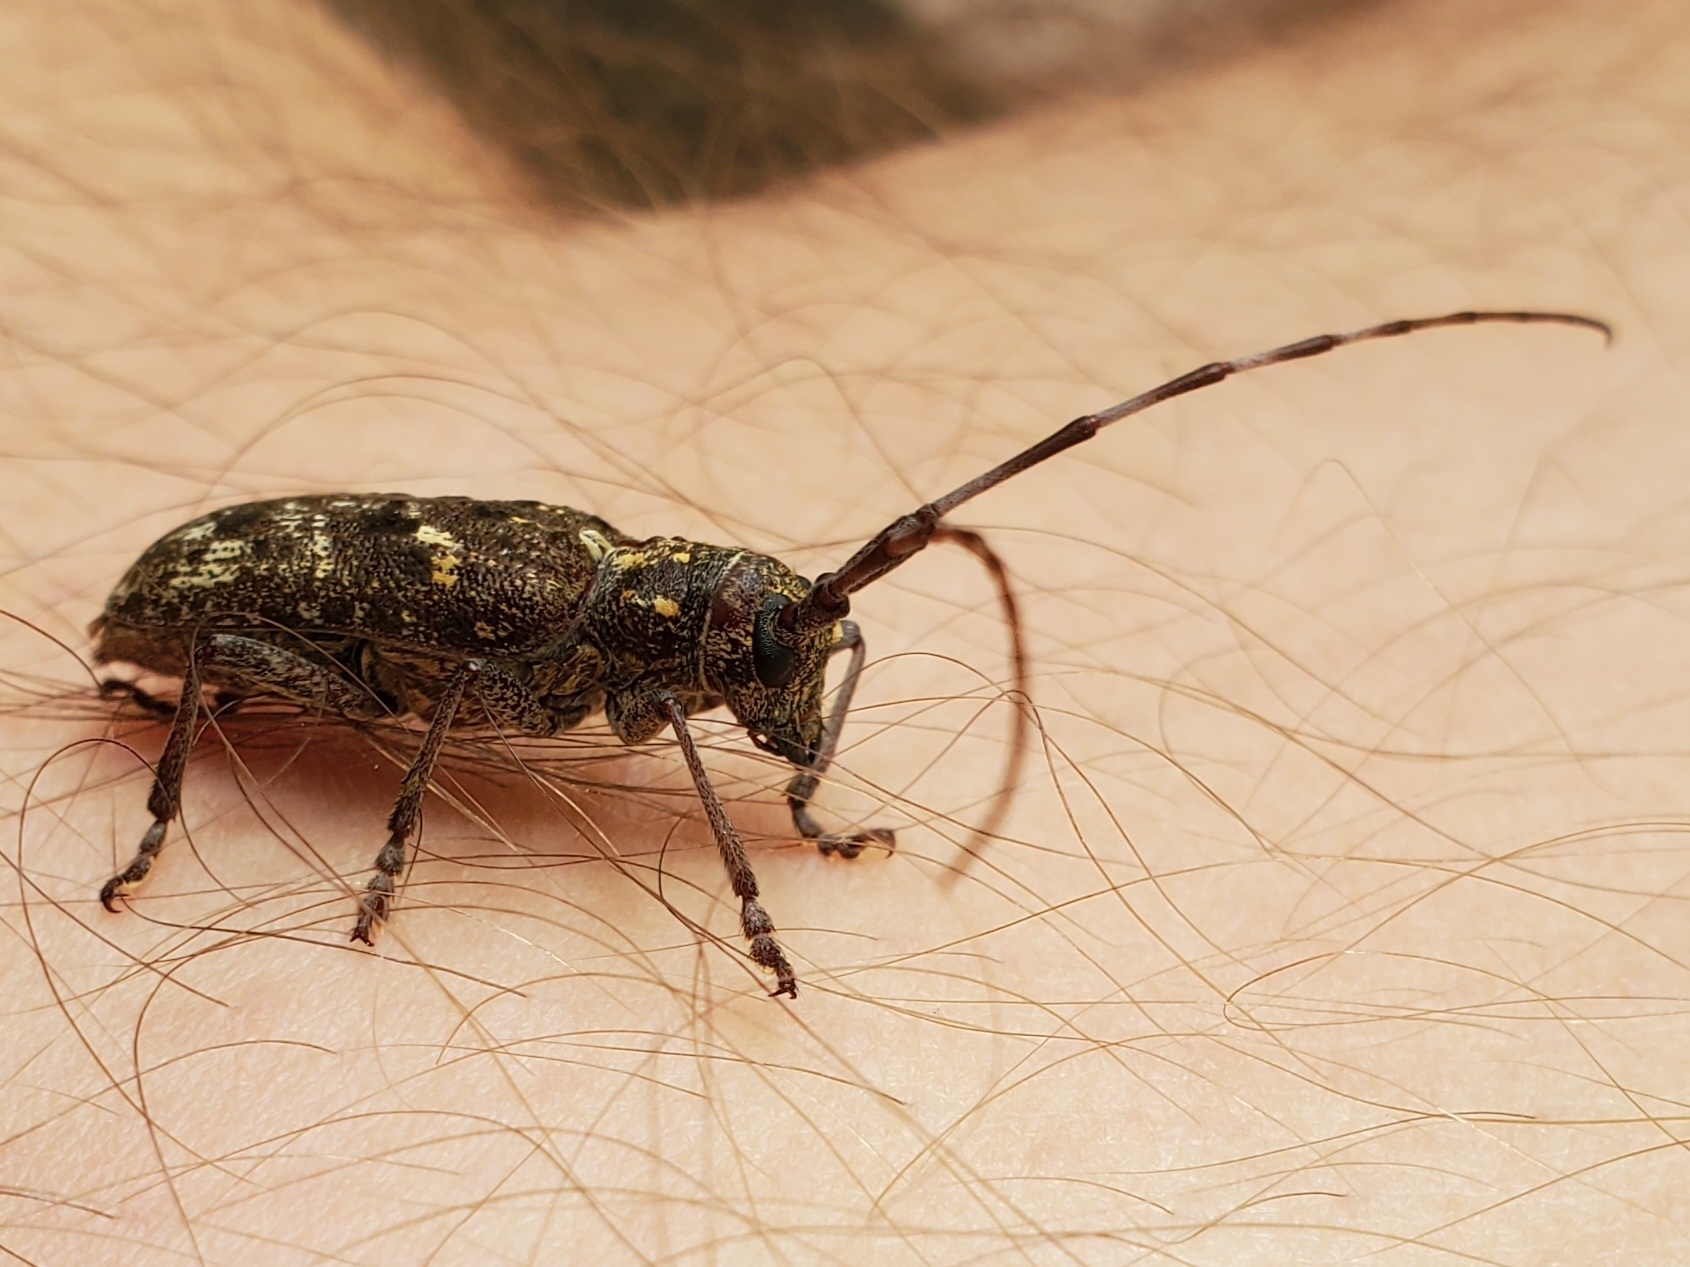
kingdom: Animalia
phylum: Arthropoda
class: Insecta
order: Coleoptera
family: Cerambycidae
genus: Monochamus
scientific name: Monochamus scutellatus
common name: White-spotted sawyer beetle
